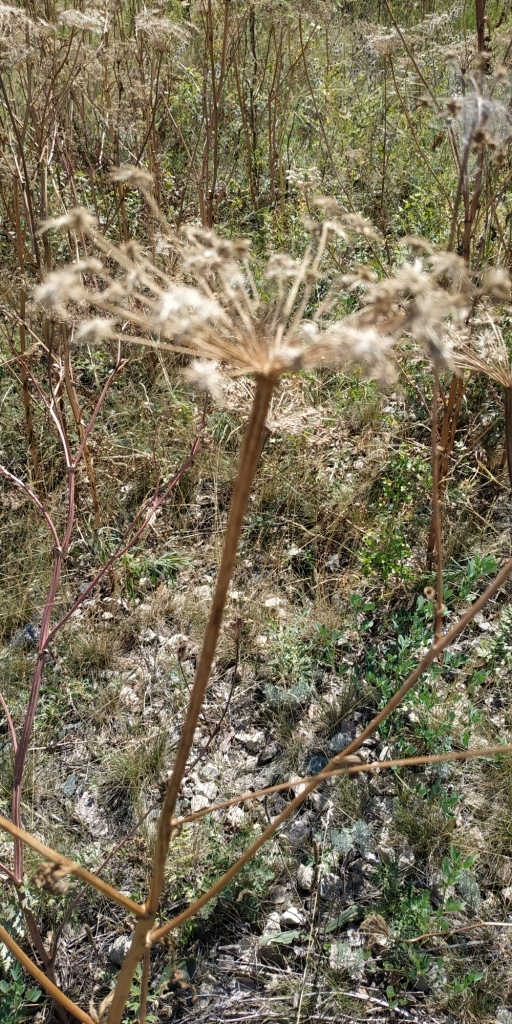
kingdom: Plantae
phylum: Tracheophyta
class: Magnoliopsida
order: Apiales
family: Apiaceae
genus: Seseli
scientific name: Seseli libanotis
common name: Mooncarrot
